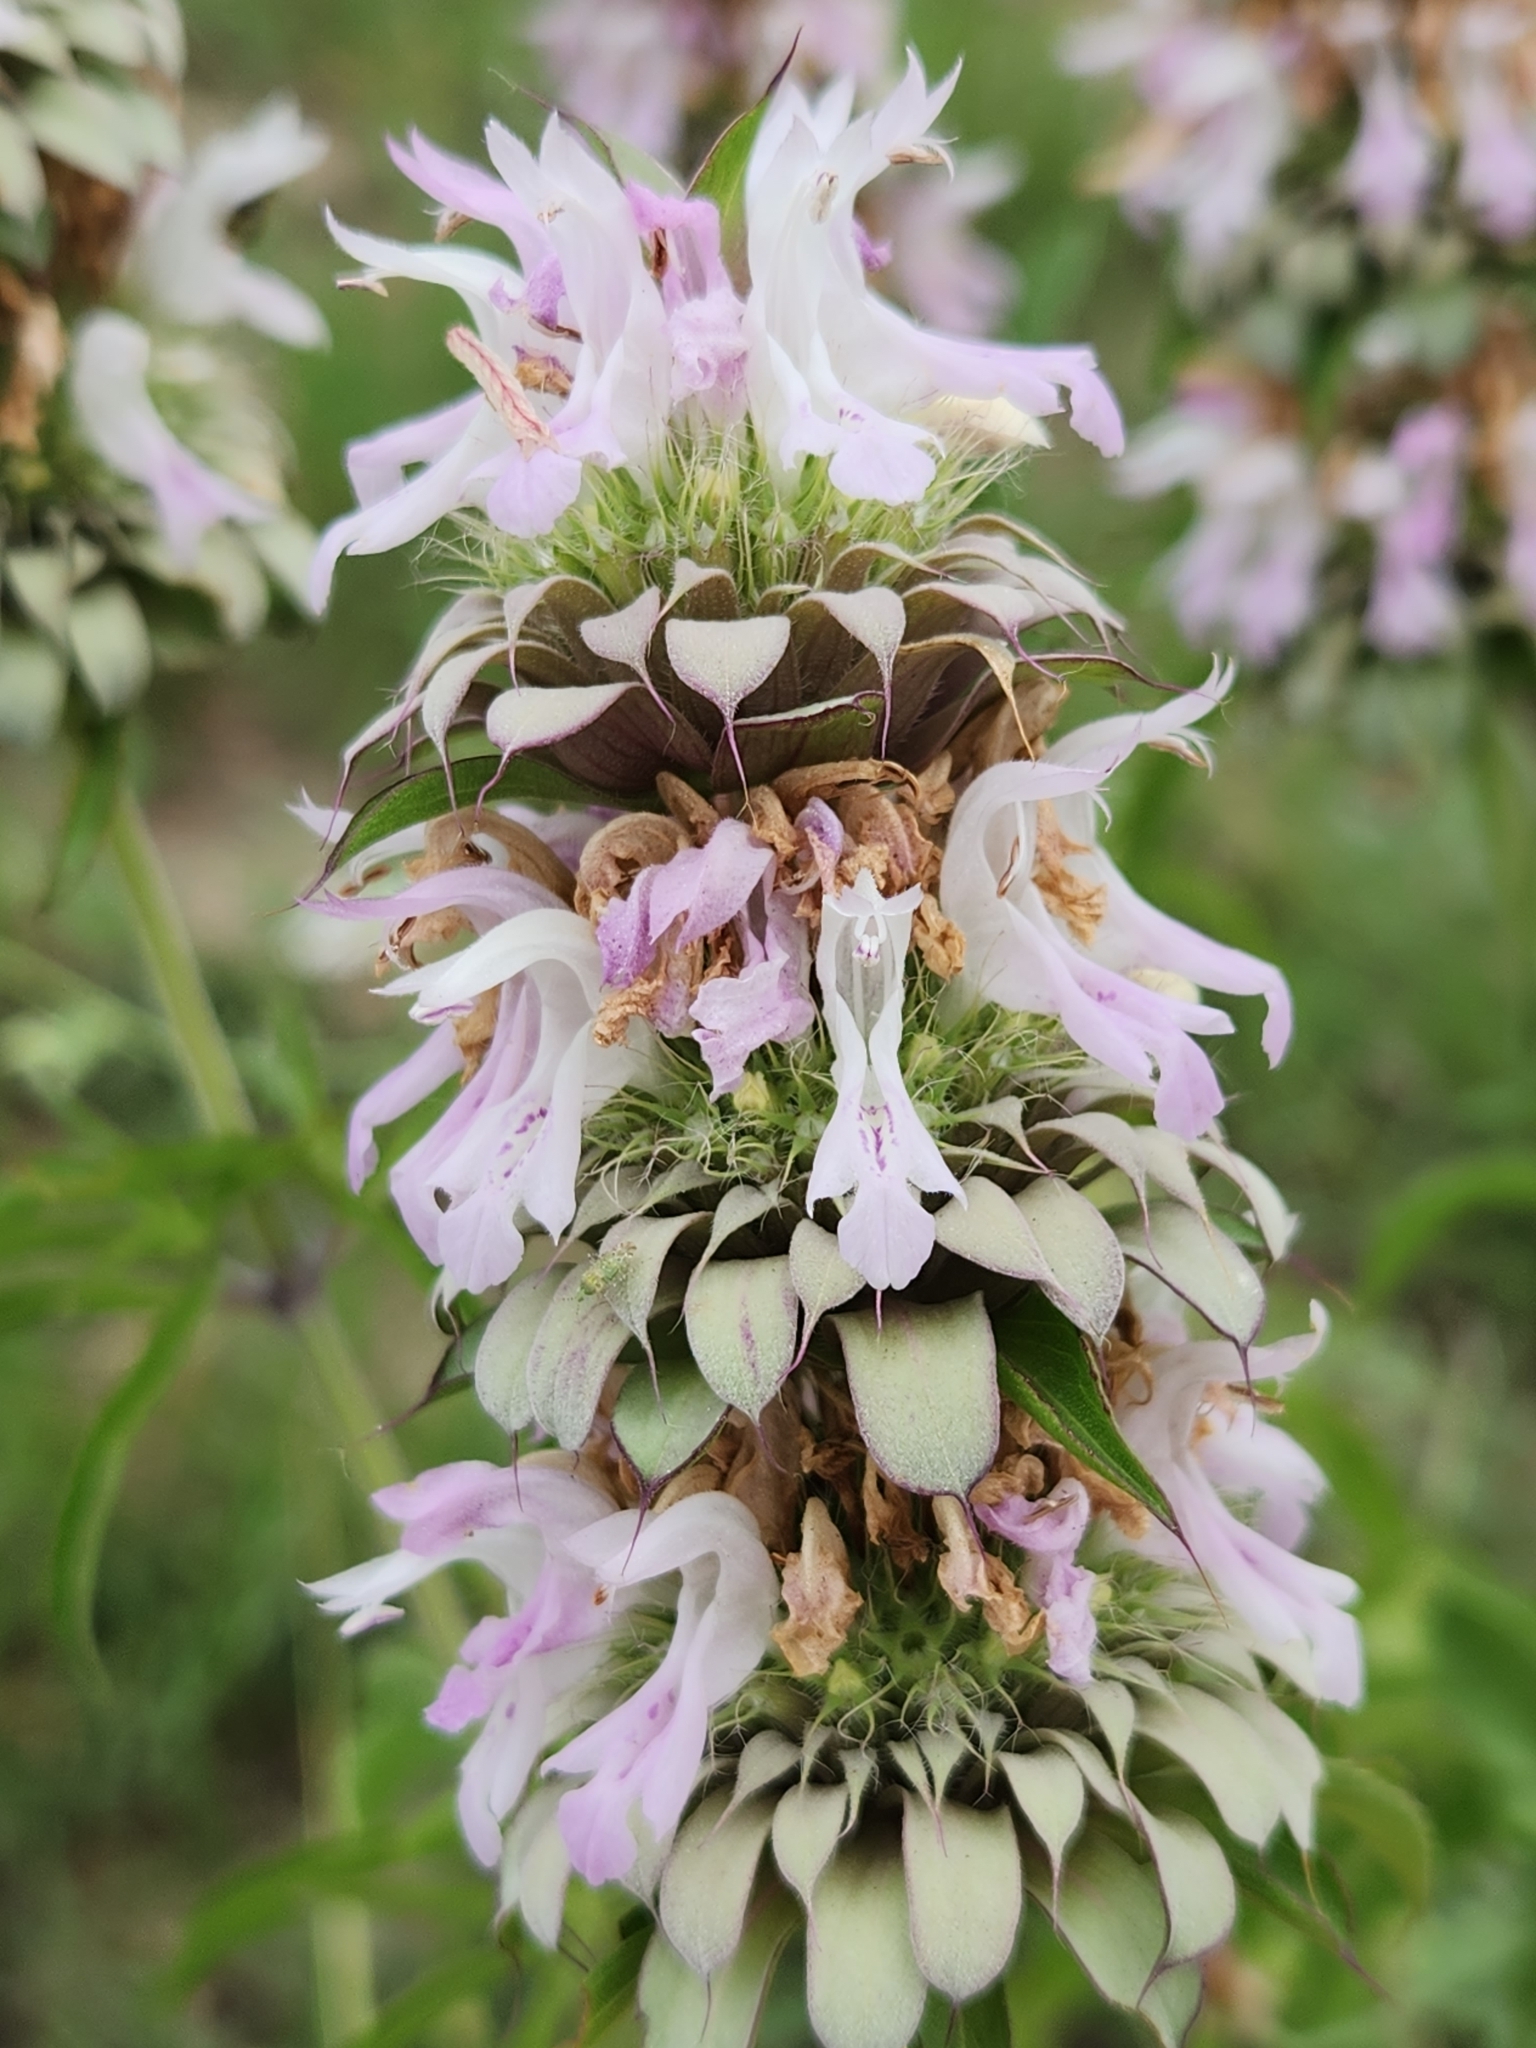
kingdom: Plantae
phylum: Tracheophyta
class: Magnoliopsida
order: Lamiales
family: Lamiaceae
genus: Monarda
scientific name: Monarda citriodora
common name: Lemon beebalm
